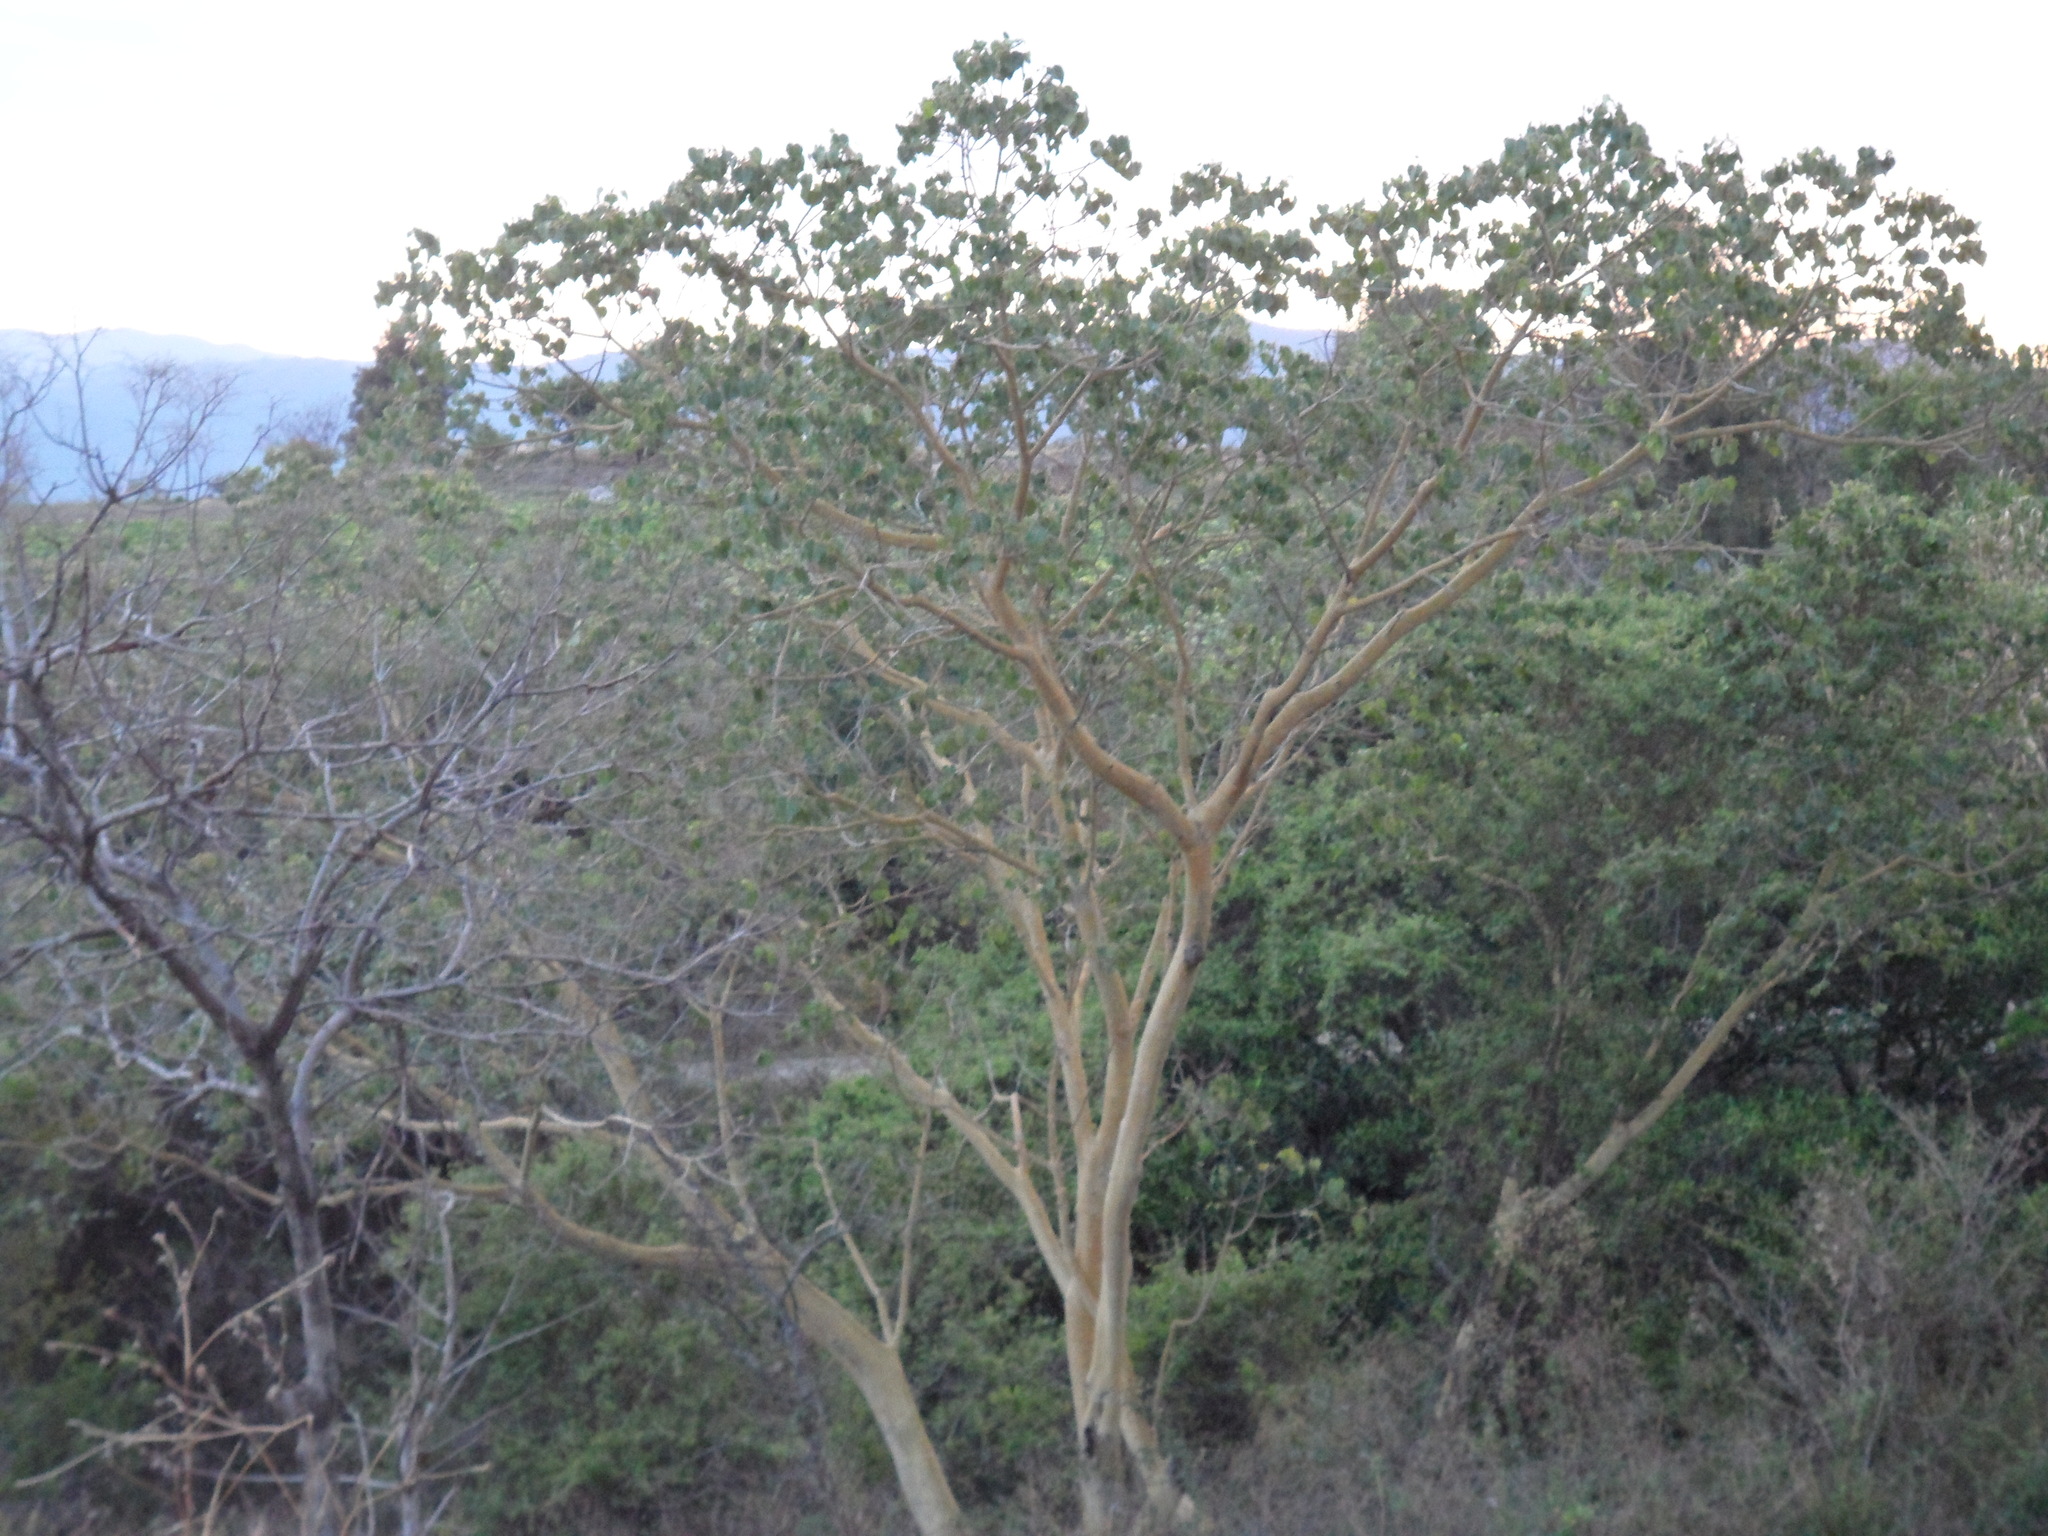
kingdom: Plantae
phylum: Tracheophyta
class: Magnoliopsida
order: Rosales
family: Moraceae
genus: Ficus
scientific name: Ficus petiolaris
